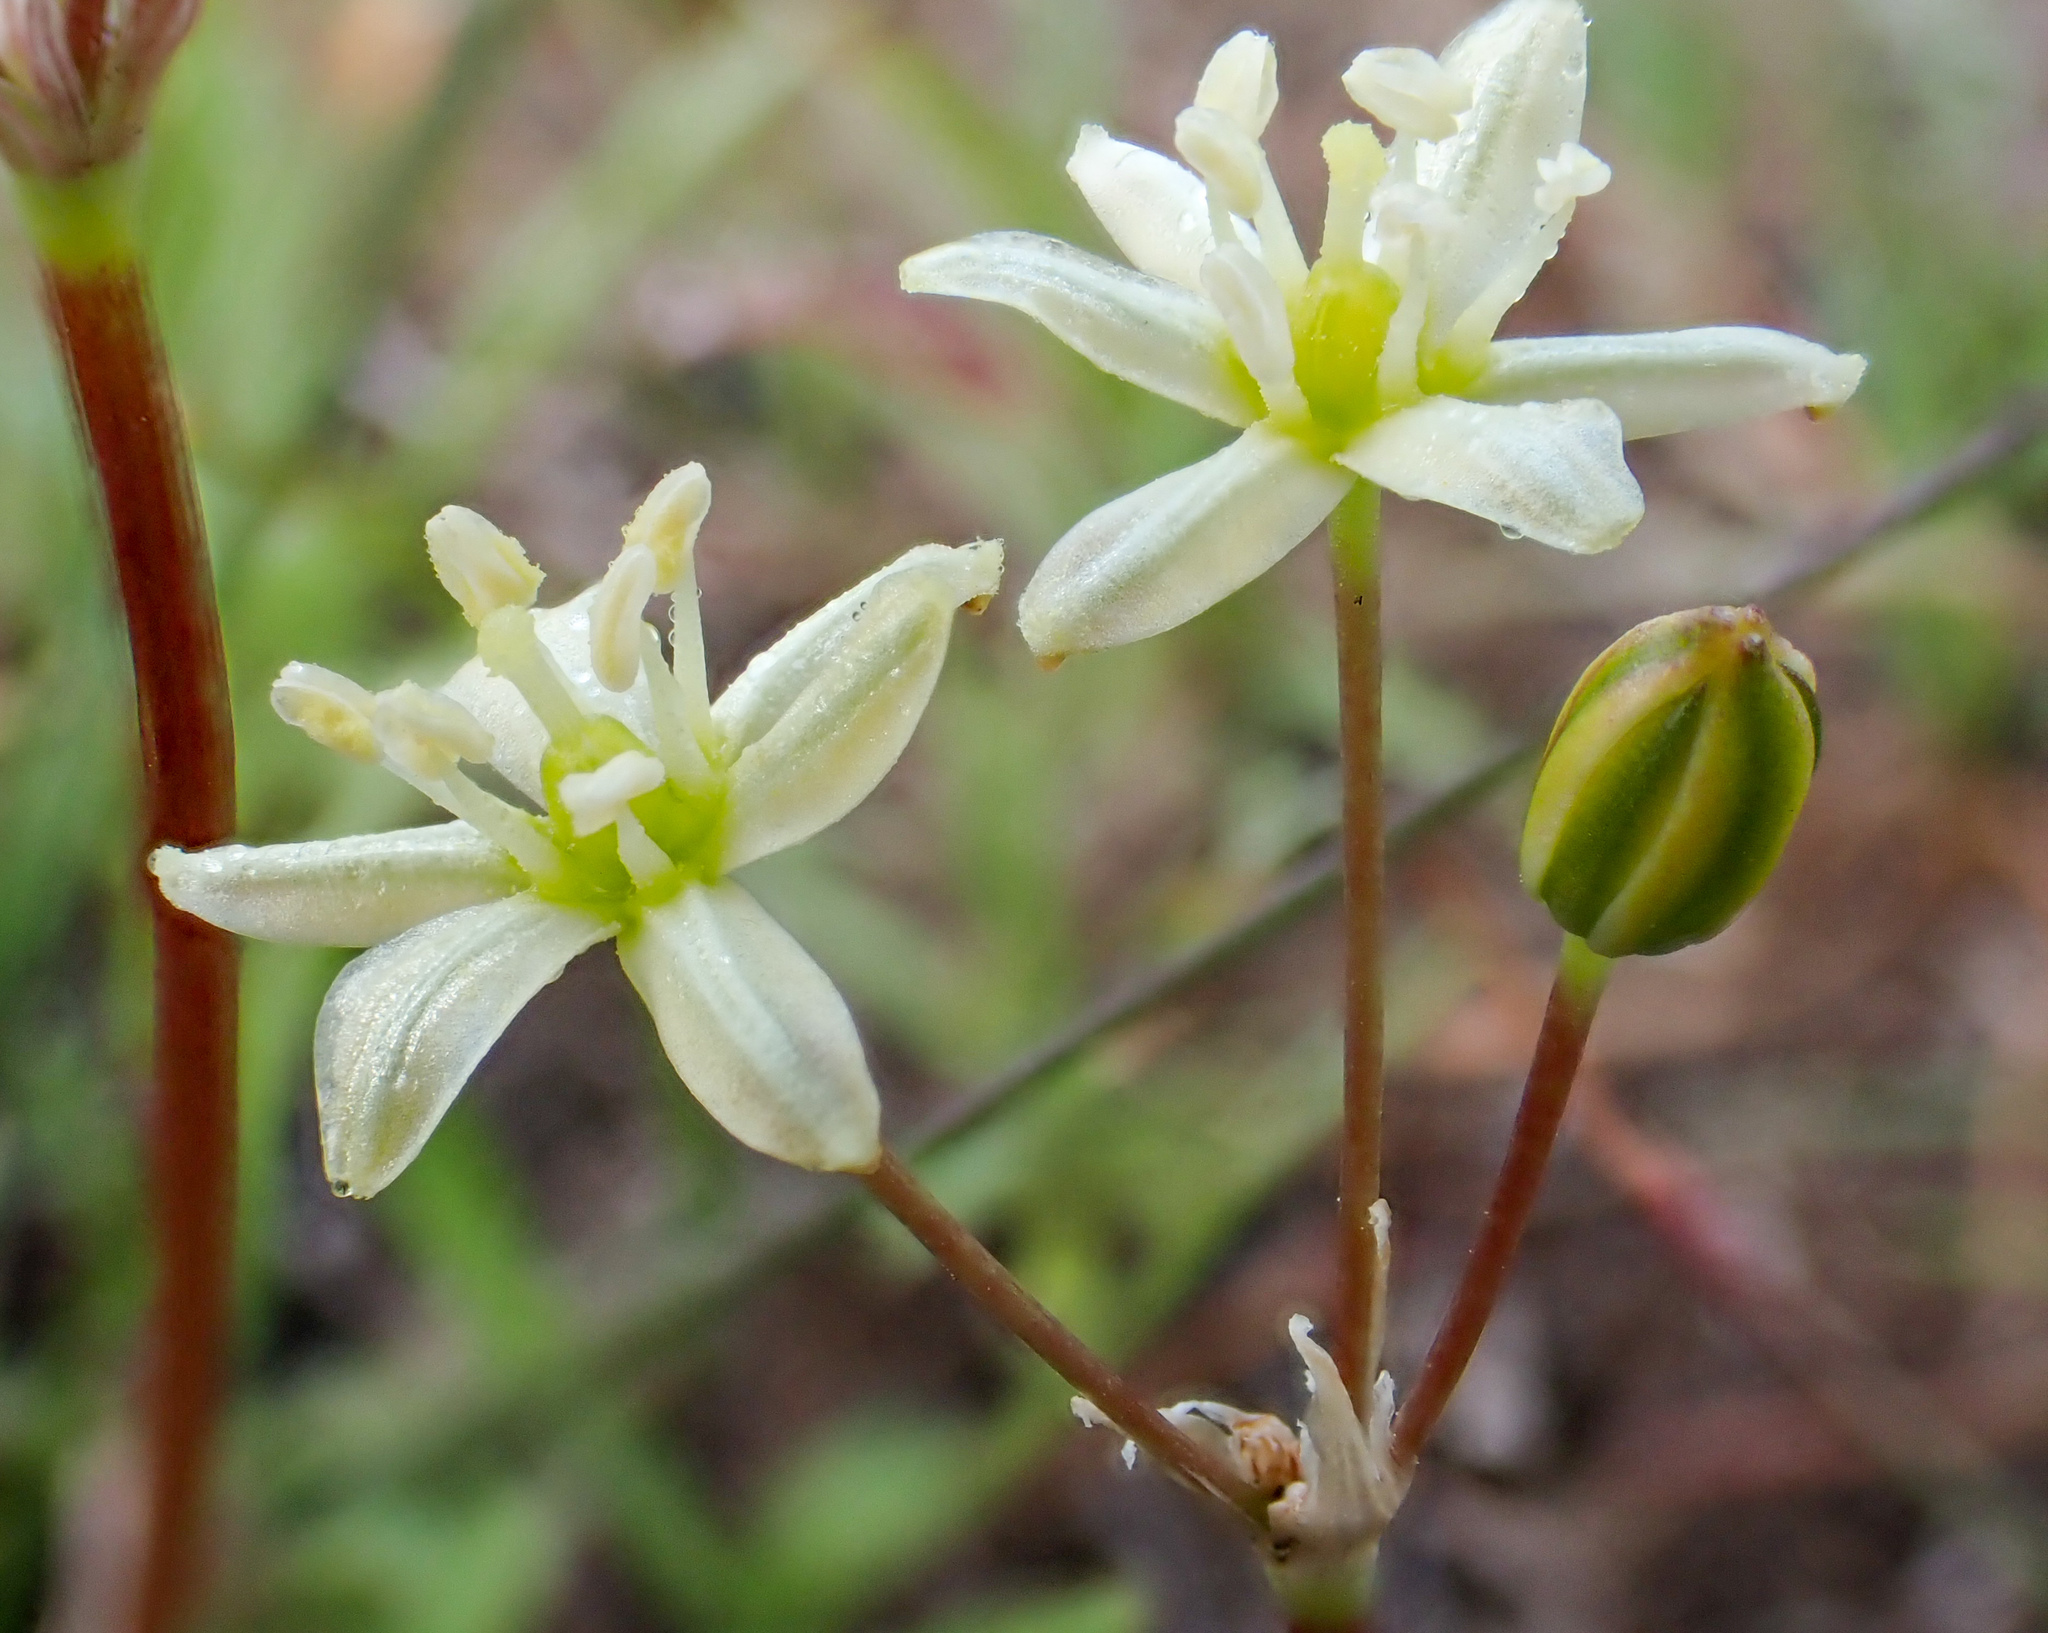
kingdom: Plantae
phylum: Tracheophyta
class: Liliopsida
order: Asparagales
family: Asparagaceae
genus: Muilla
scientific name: Muilla maritima
